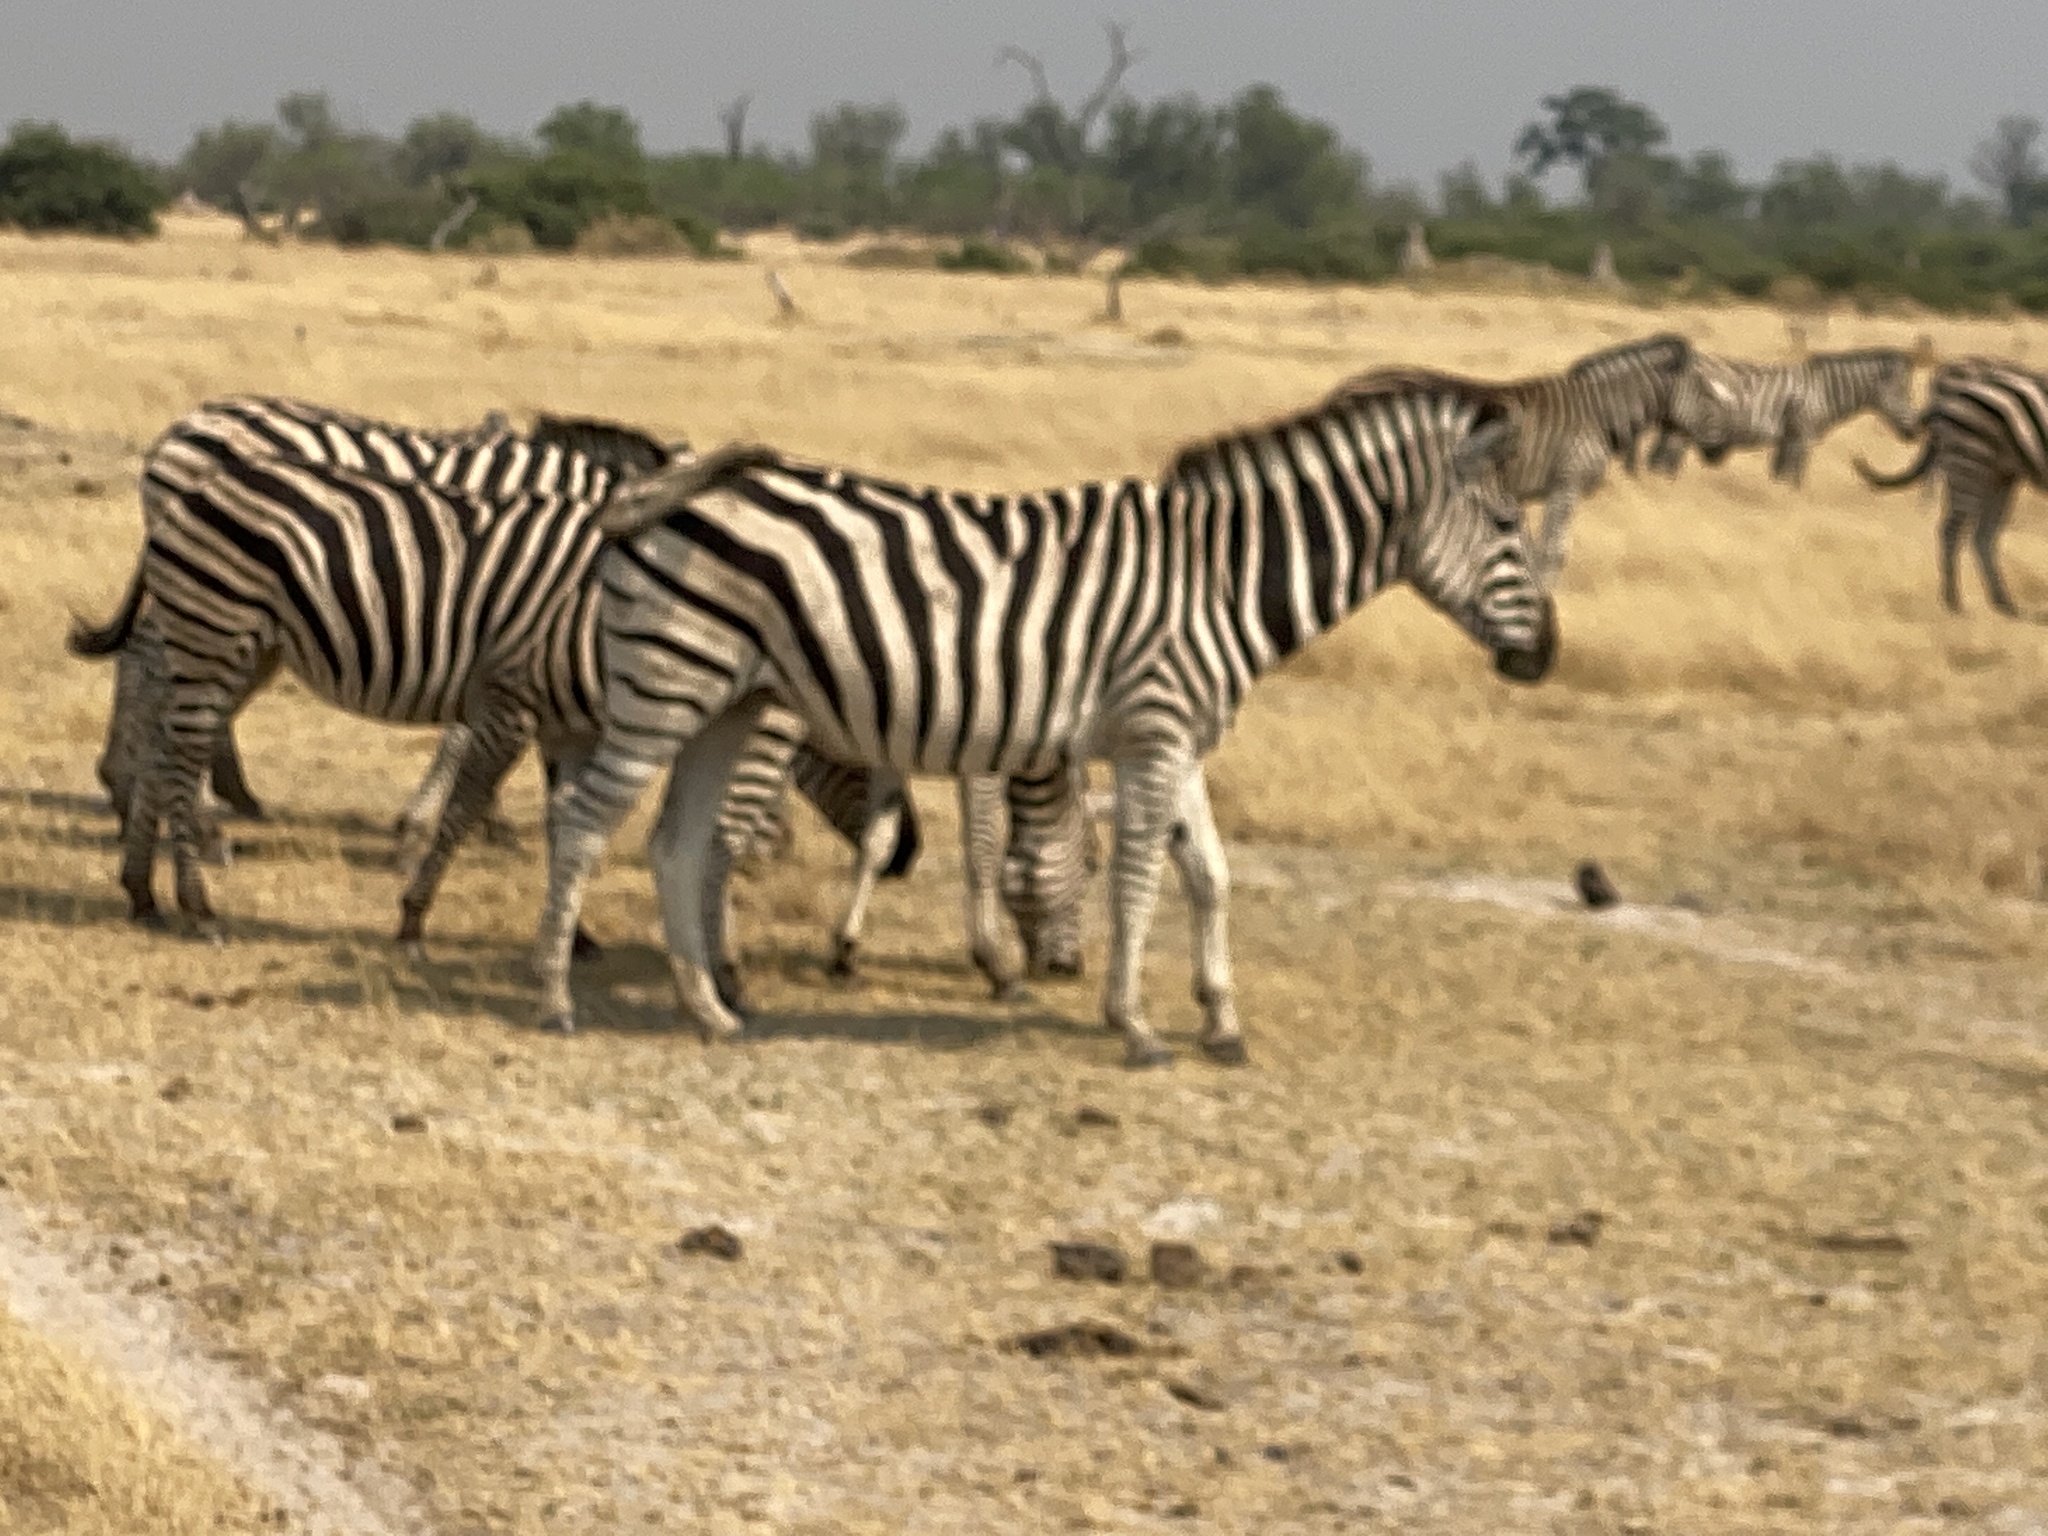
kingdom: Animalia
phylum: Chordata
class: Mammalia
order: Perissodactyla
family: Equidae
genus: Equus
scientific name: Equus quagga
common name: Plains zebra
